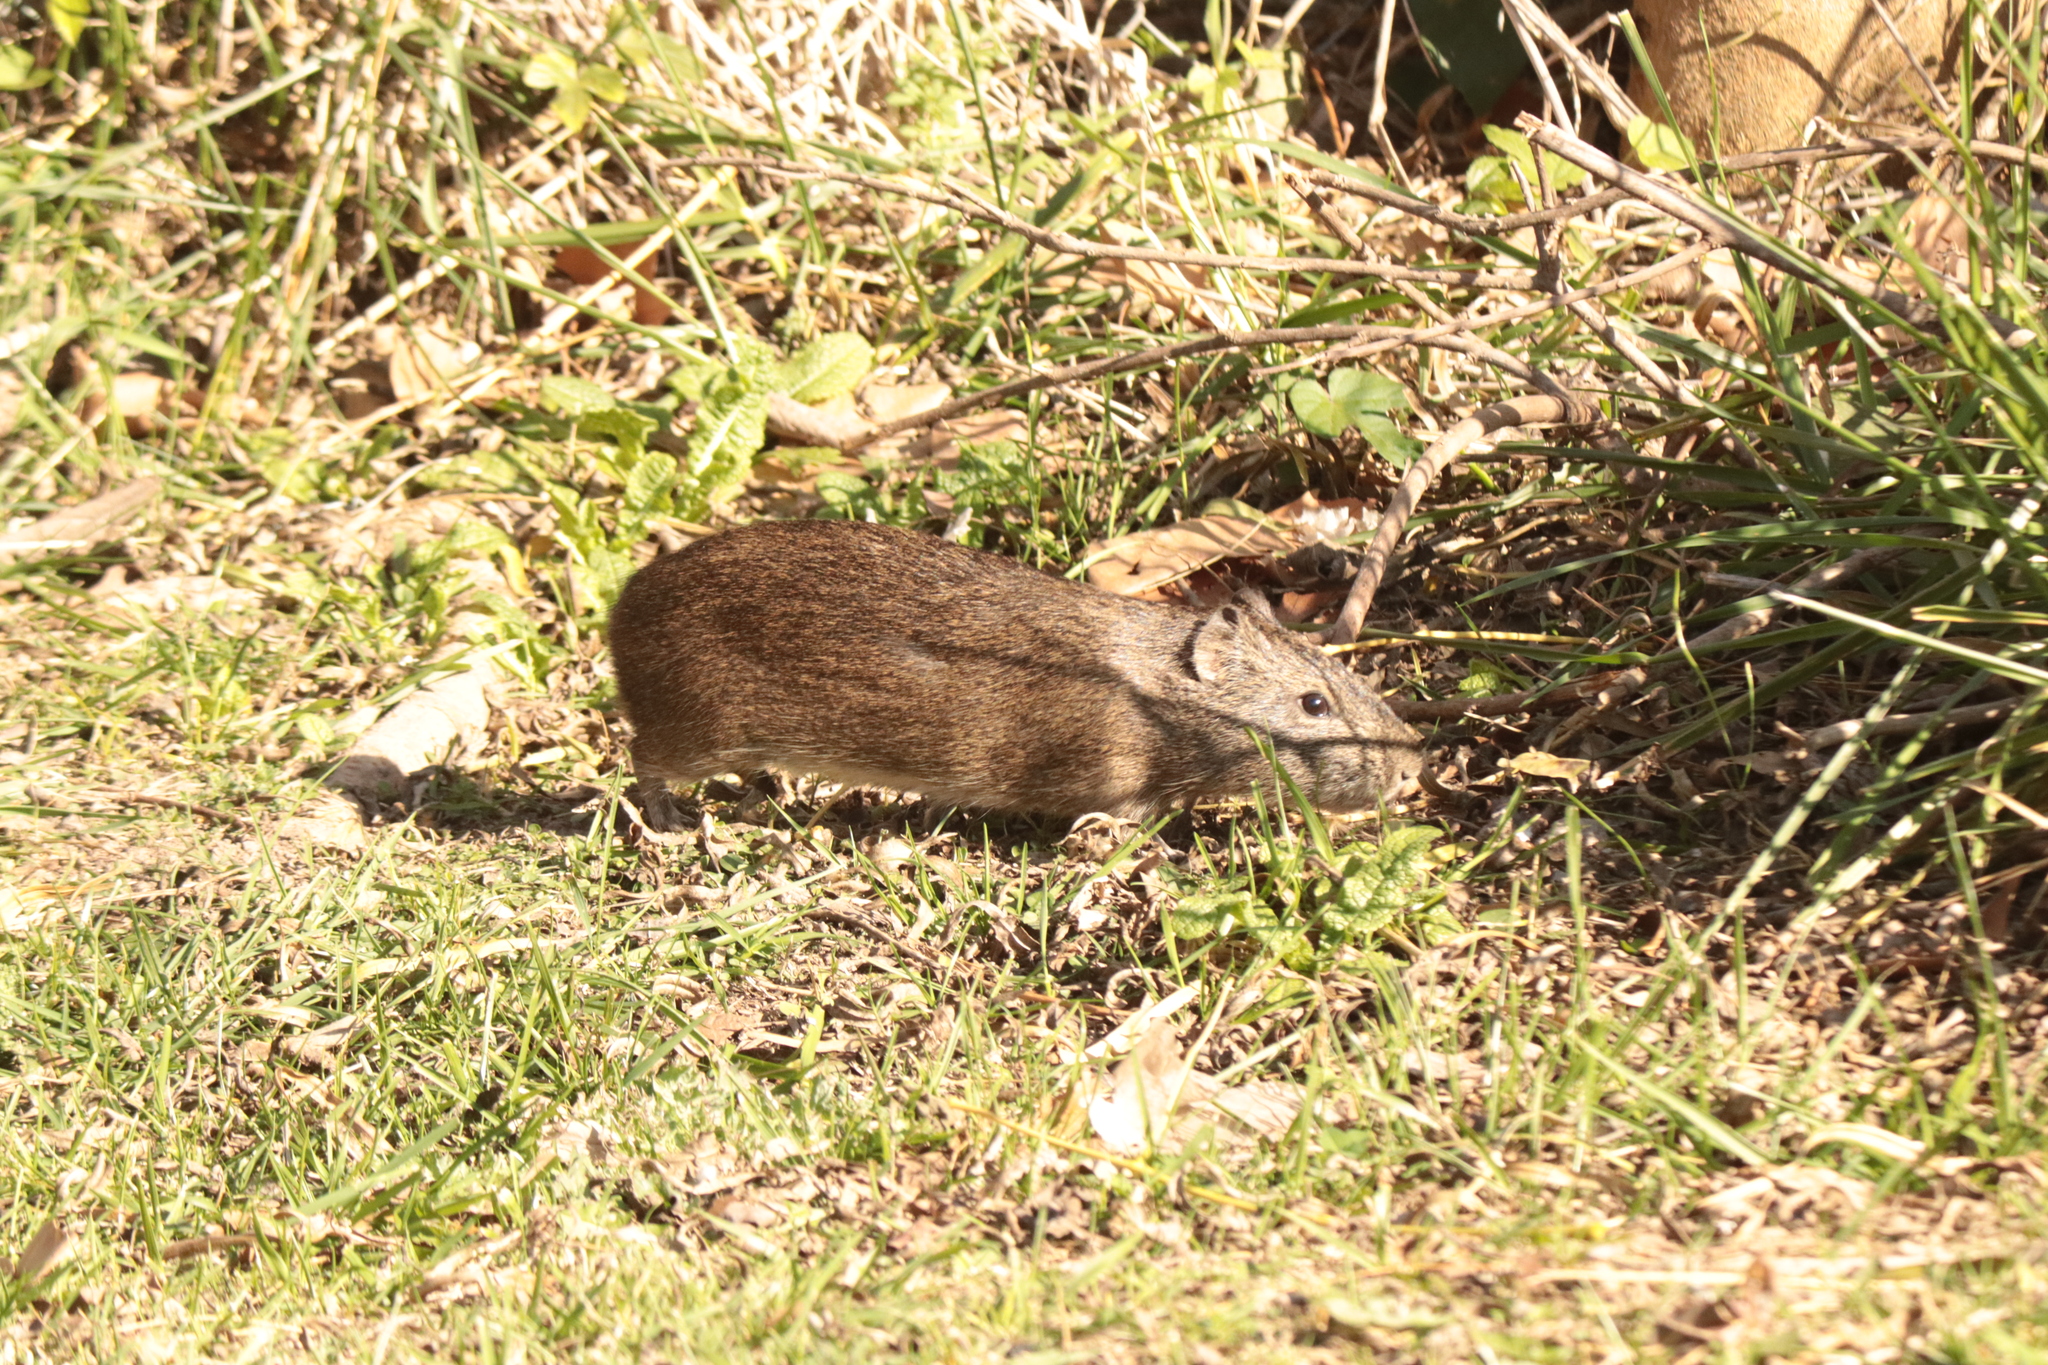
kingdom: Animalia
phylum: Chordata
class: Mammalia
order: Rodentia
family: Caviidae
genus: Cavia
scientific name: Cavia aperea
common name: Brazilian guinea pig
